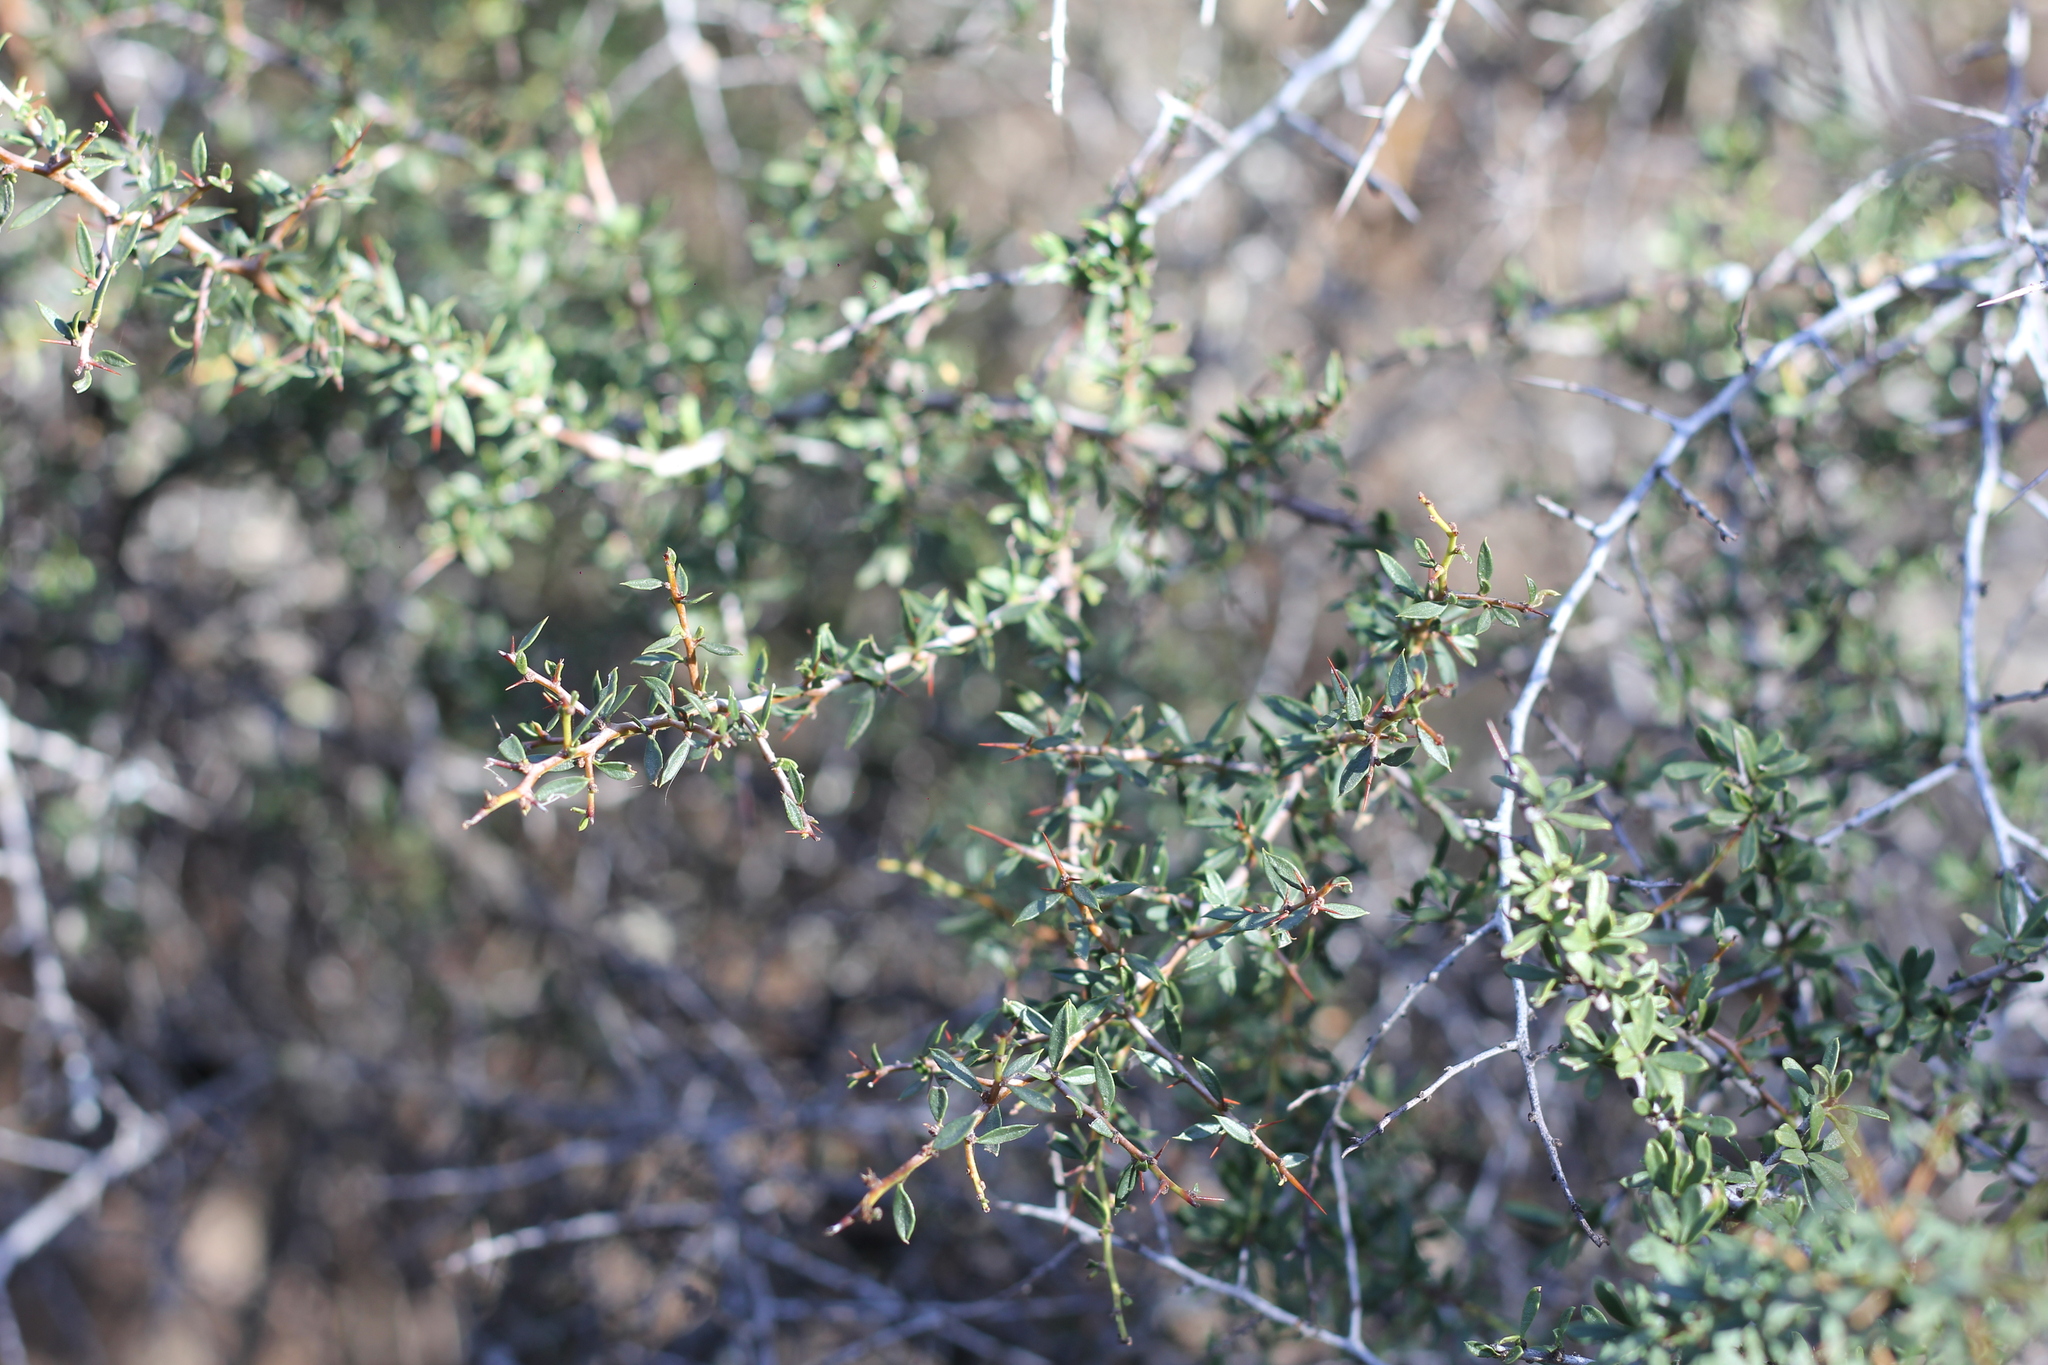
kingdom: Plantae
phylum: Tracheophyta
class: Magnoliopsida
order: Rosales
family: Rhamnaceae
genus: Condalia
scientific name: Condalia microphylla
